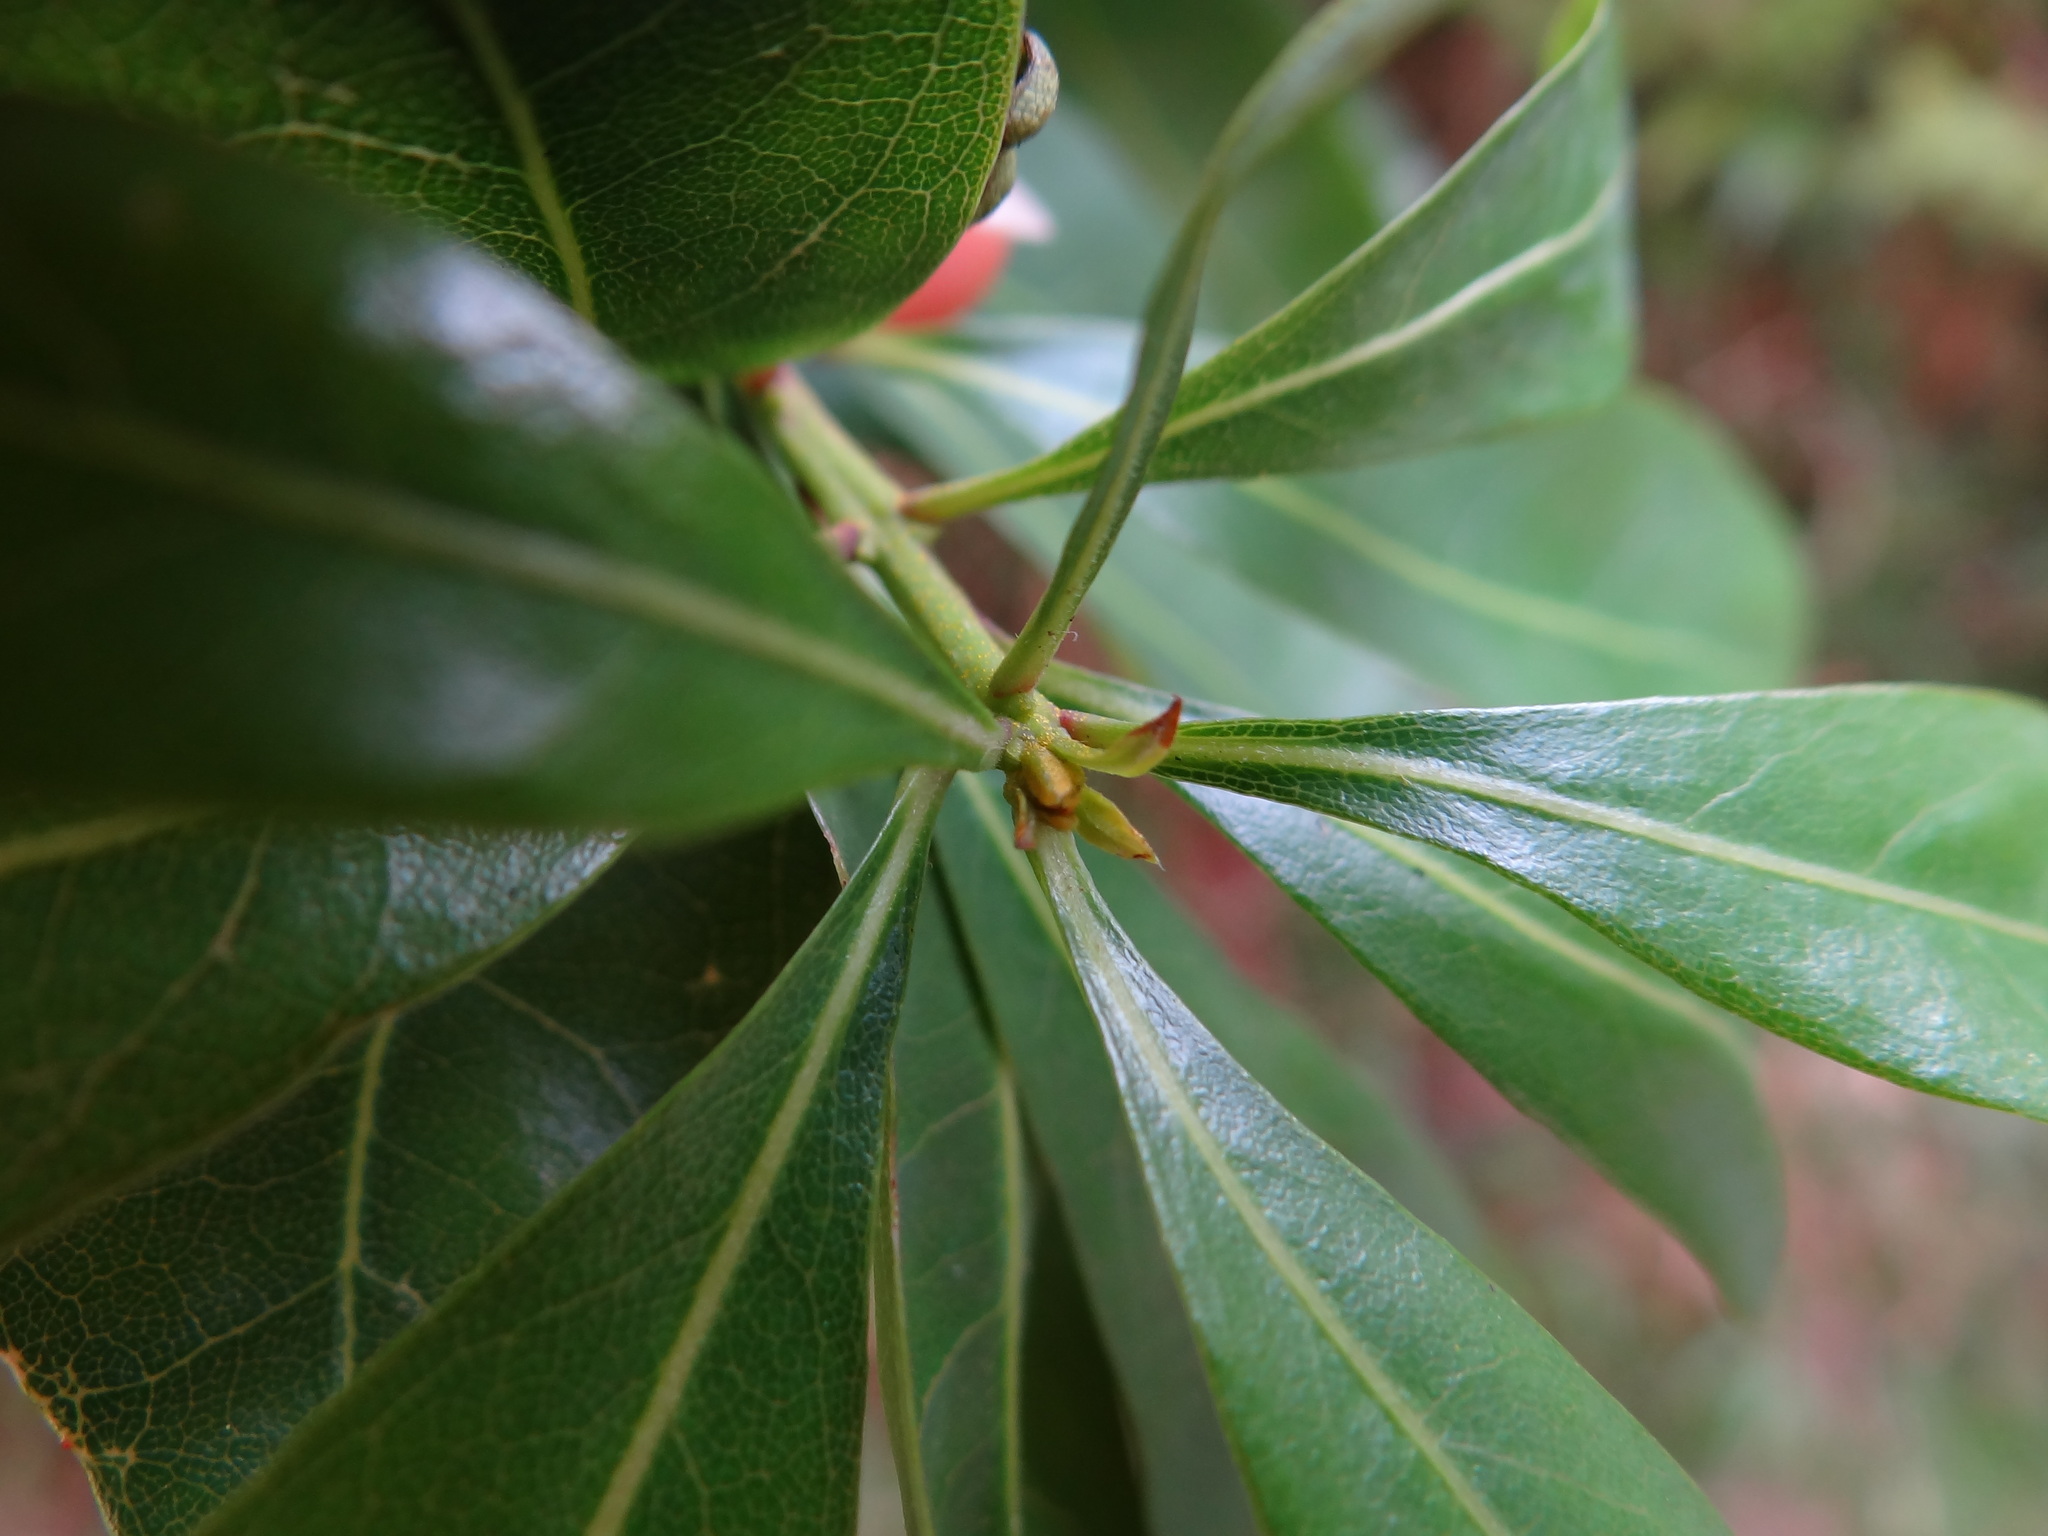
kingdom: Plantae
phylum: Tracheophyta
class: Magnoliopsida
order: Rosales
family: Rosaceae
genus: Rhaphiolepis
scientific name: Rhaphiolepis indica
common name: India-hawthorn
